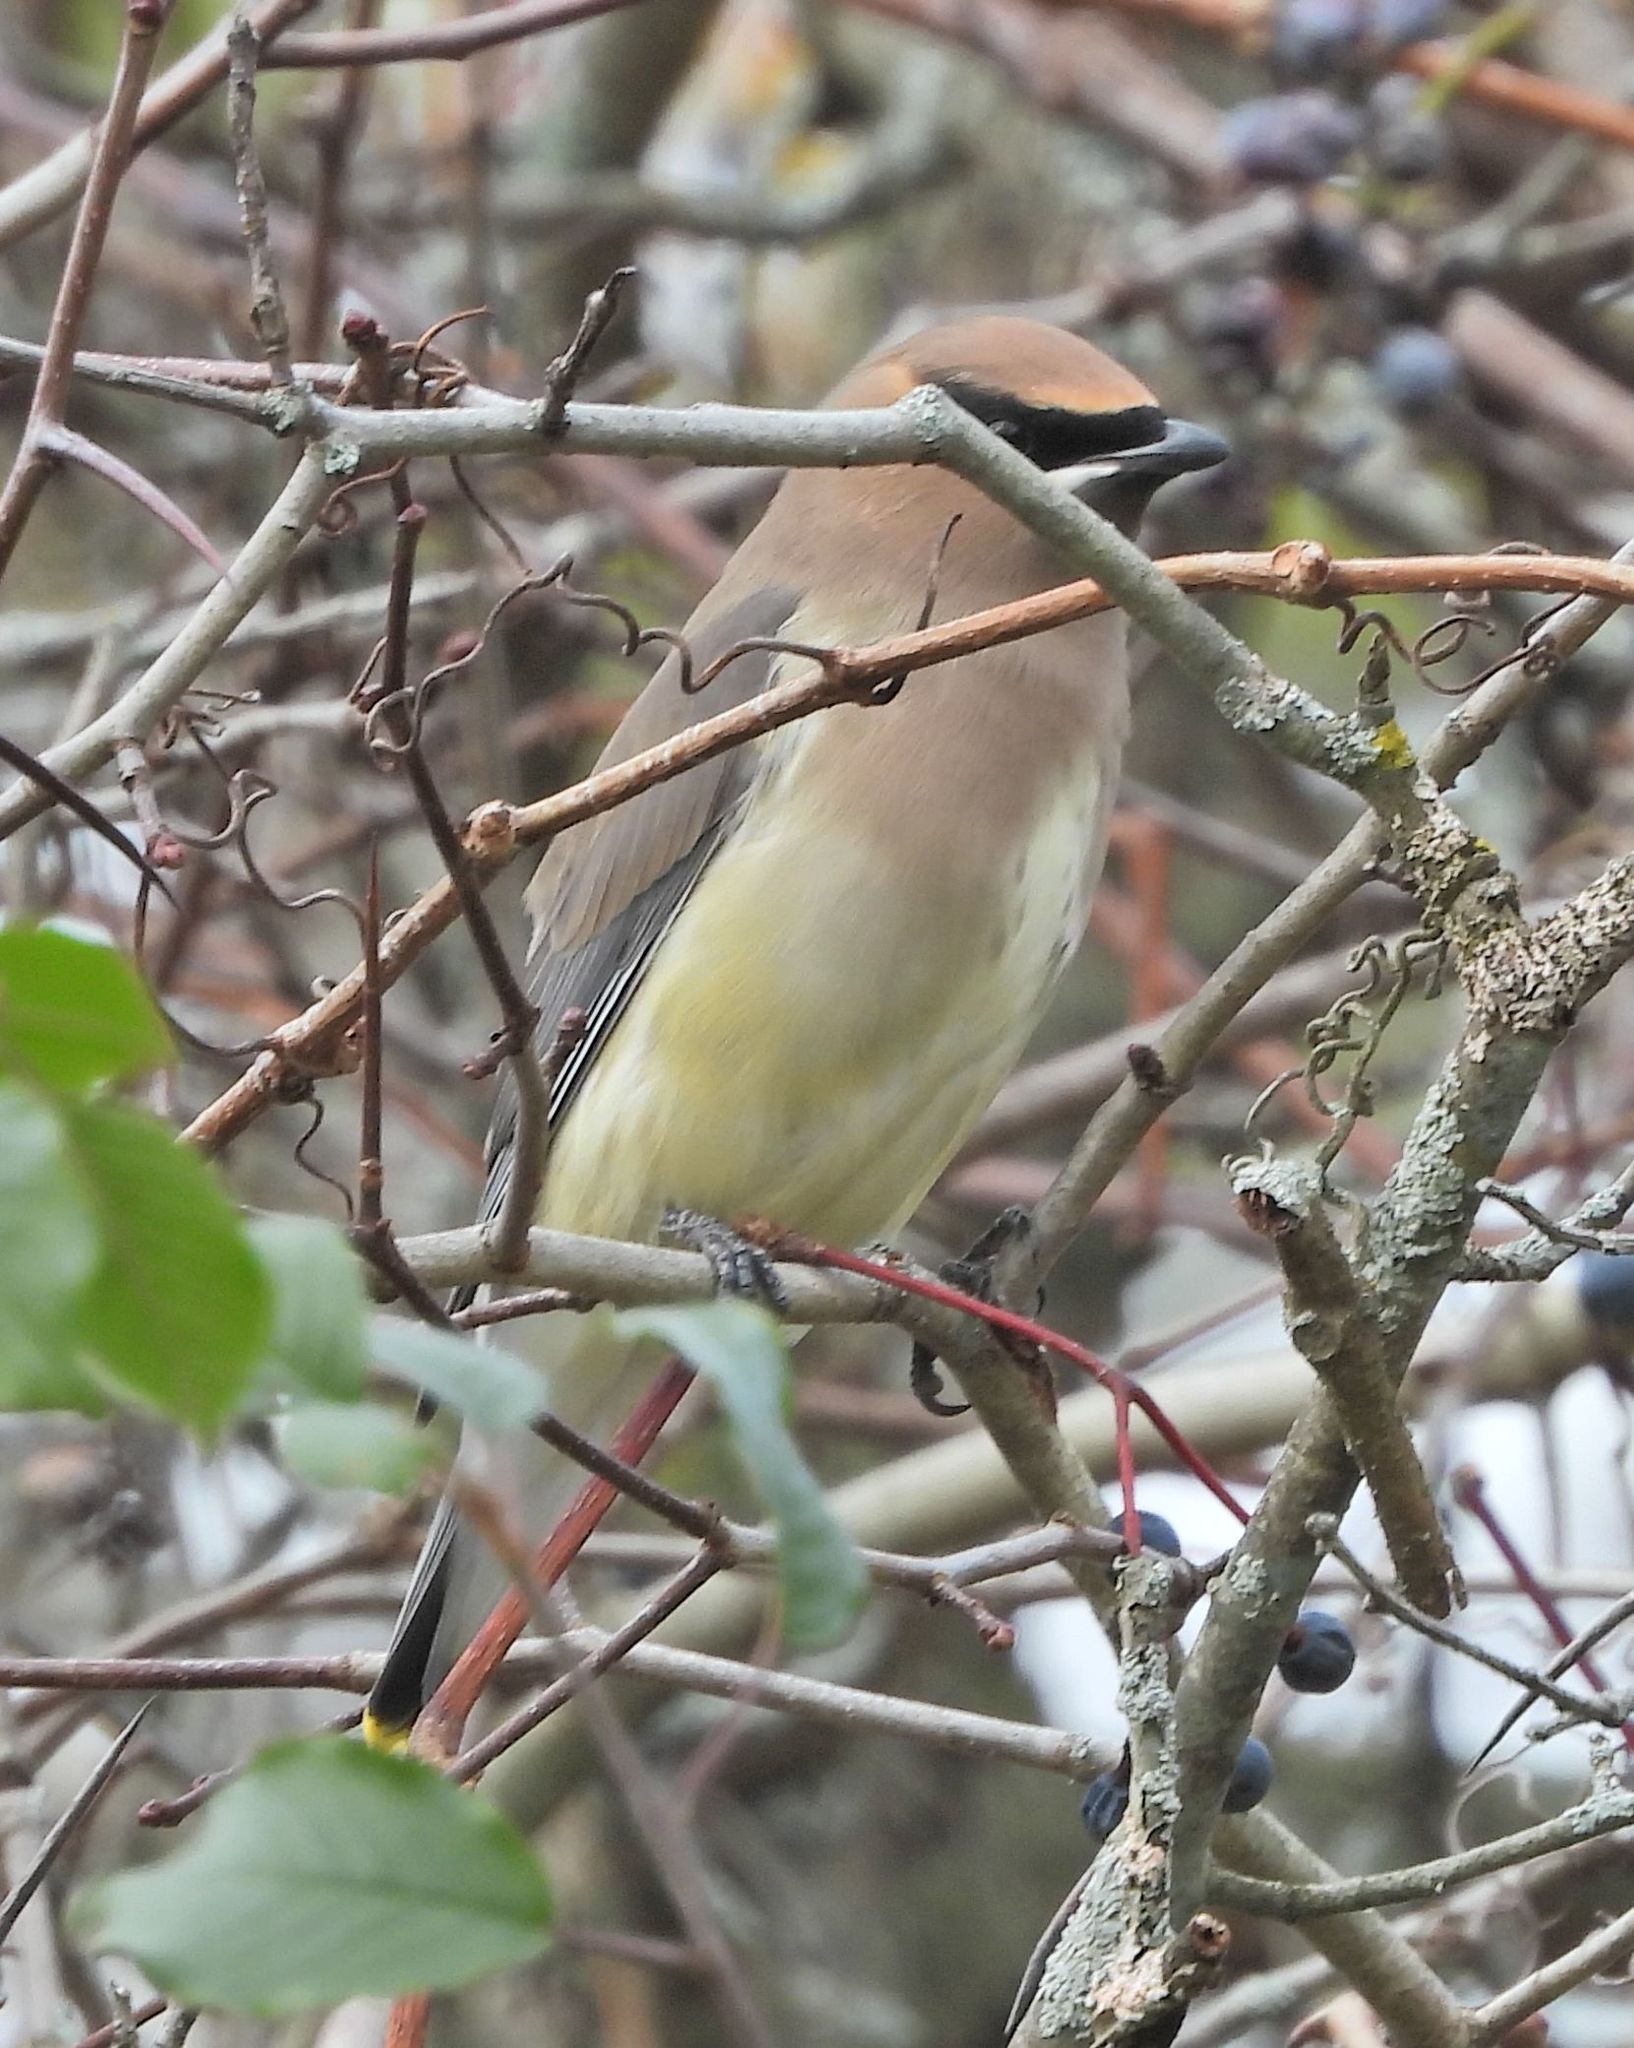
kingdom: Animalia
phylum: Chordata
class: Aves
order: Passeriformes
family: Bombycillidae
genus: Bombycilla
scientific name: Bombycilla cedrorum
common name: Cedar waxwing
